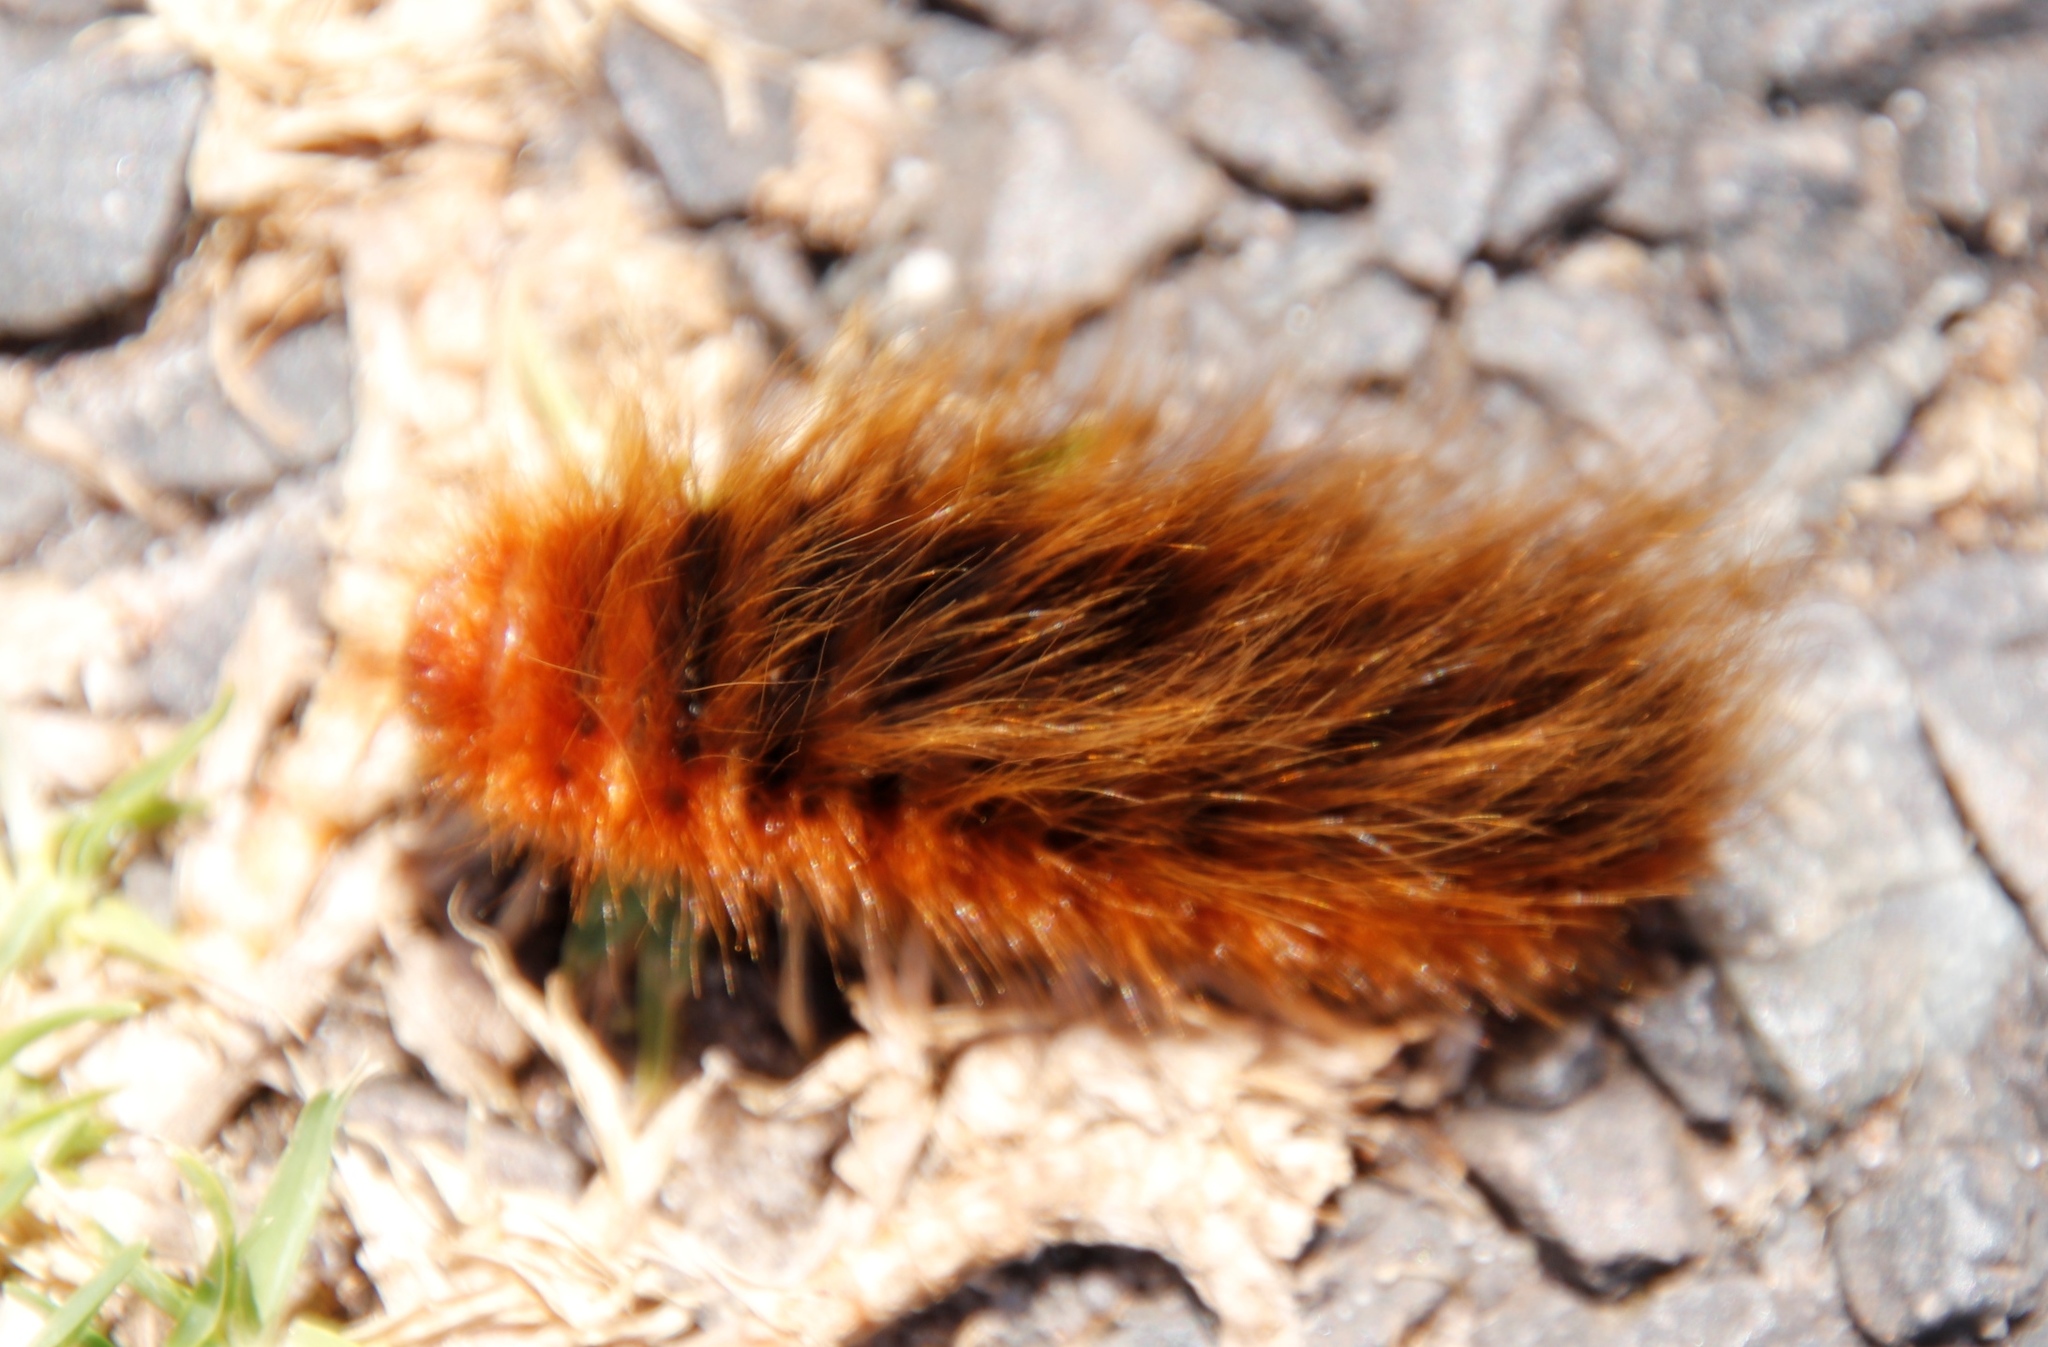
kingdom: Animalia
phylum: Arthropoda
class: Insecta
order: Lepidoptera
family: Eupterotidae
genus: Phyllalia
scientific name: Phyllalia patens
